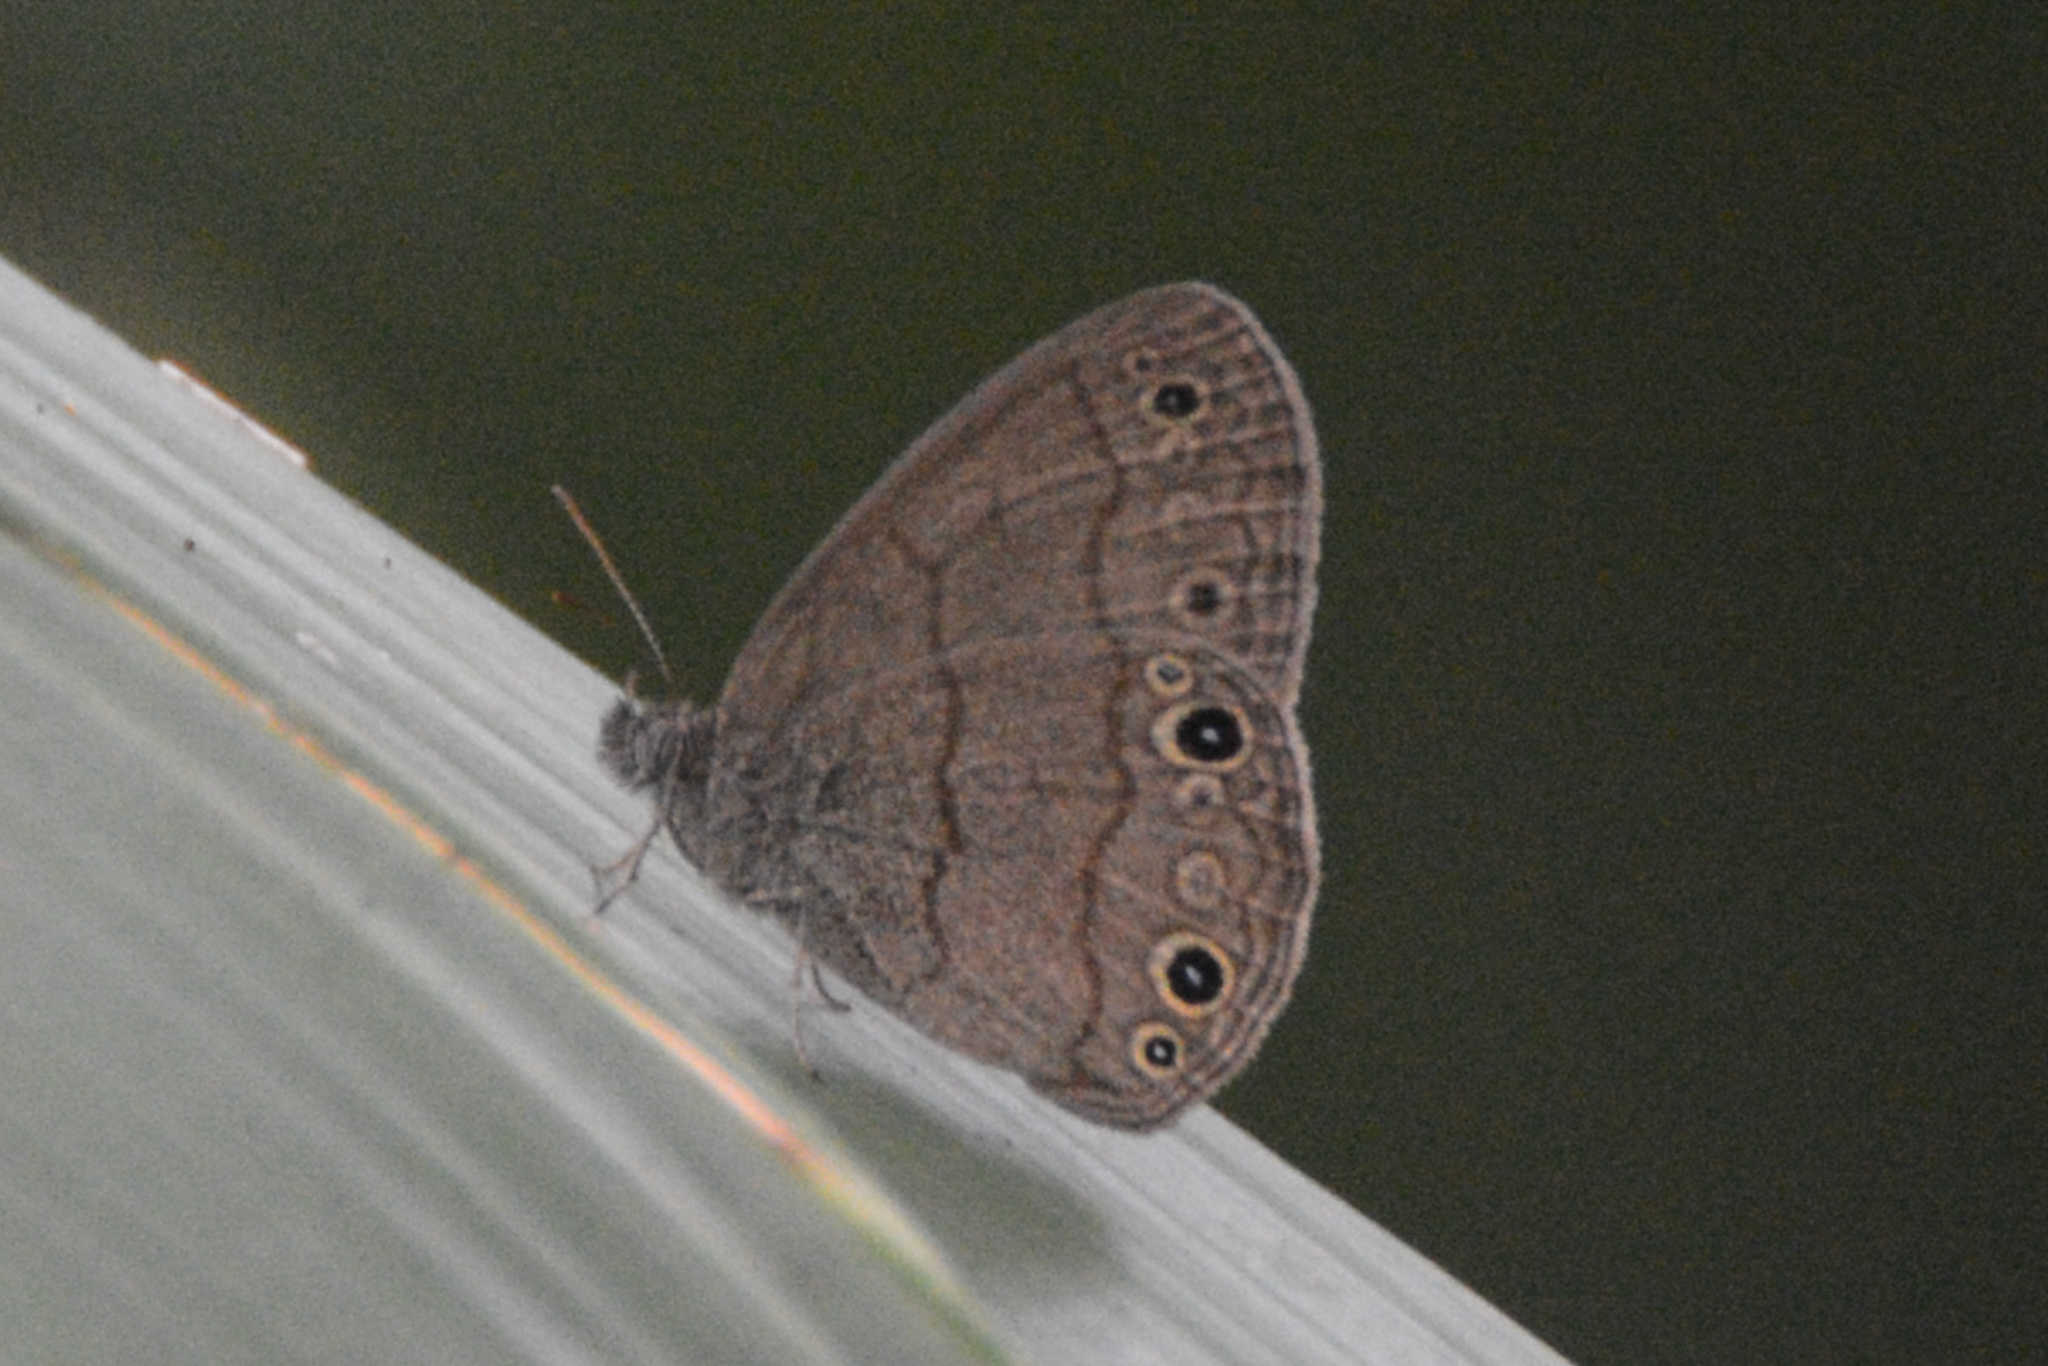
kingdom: Animalia
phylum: Arthropoda
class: Insecta
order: Lepidoptera
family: Nymphalidae
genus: Hermeuptychia
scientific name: Hermeuptychia hermes
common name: Hermes satyr
